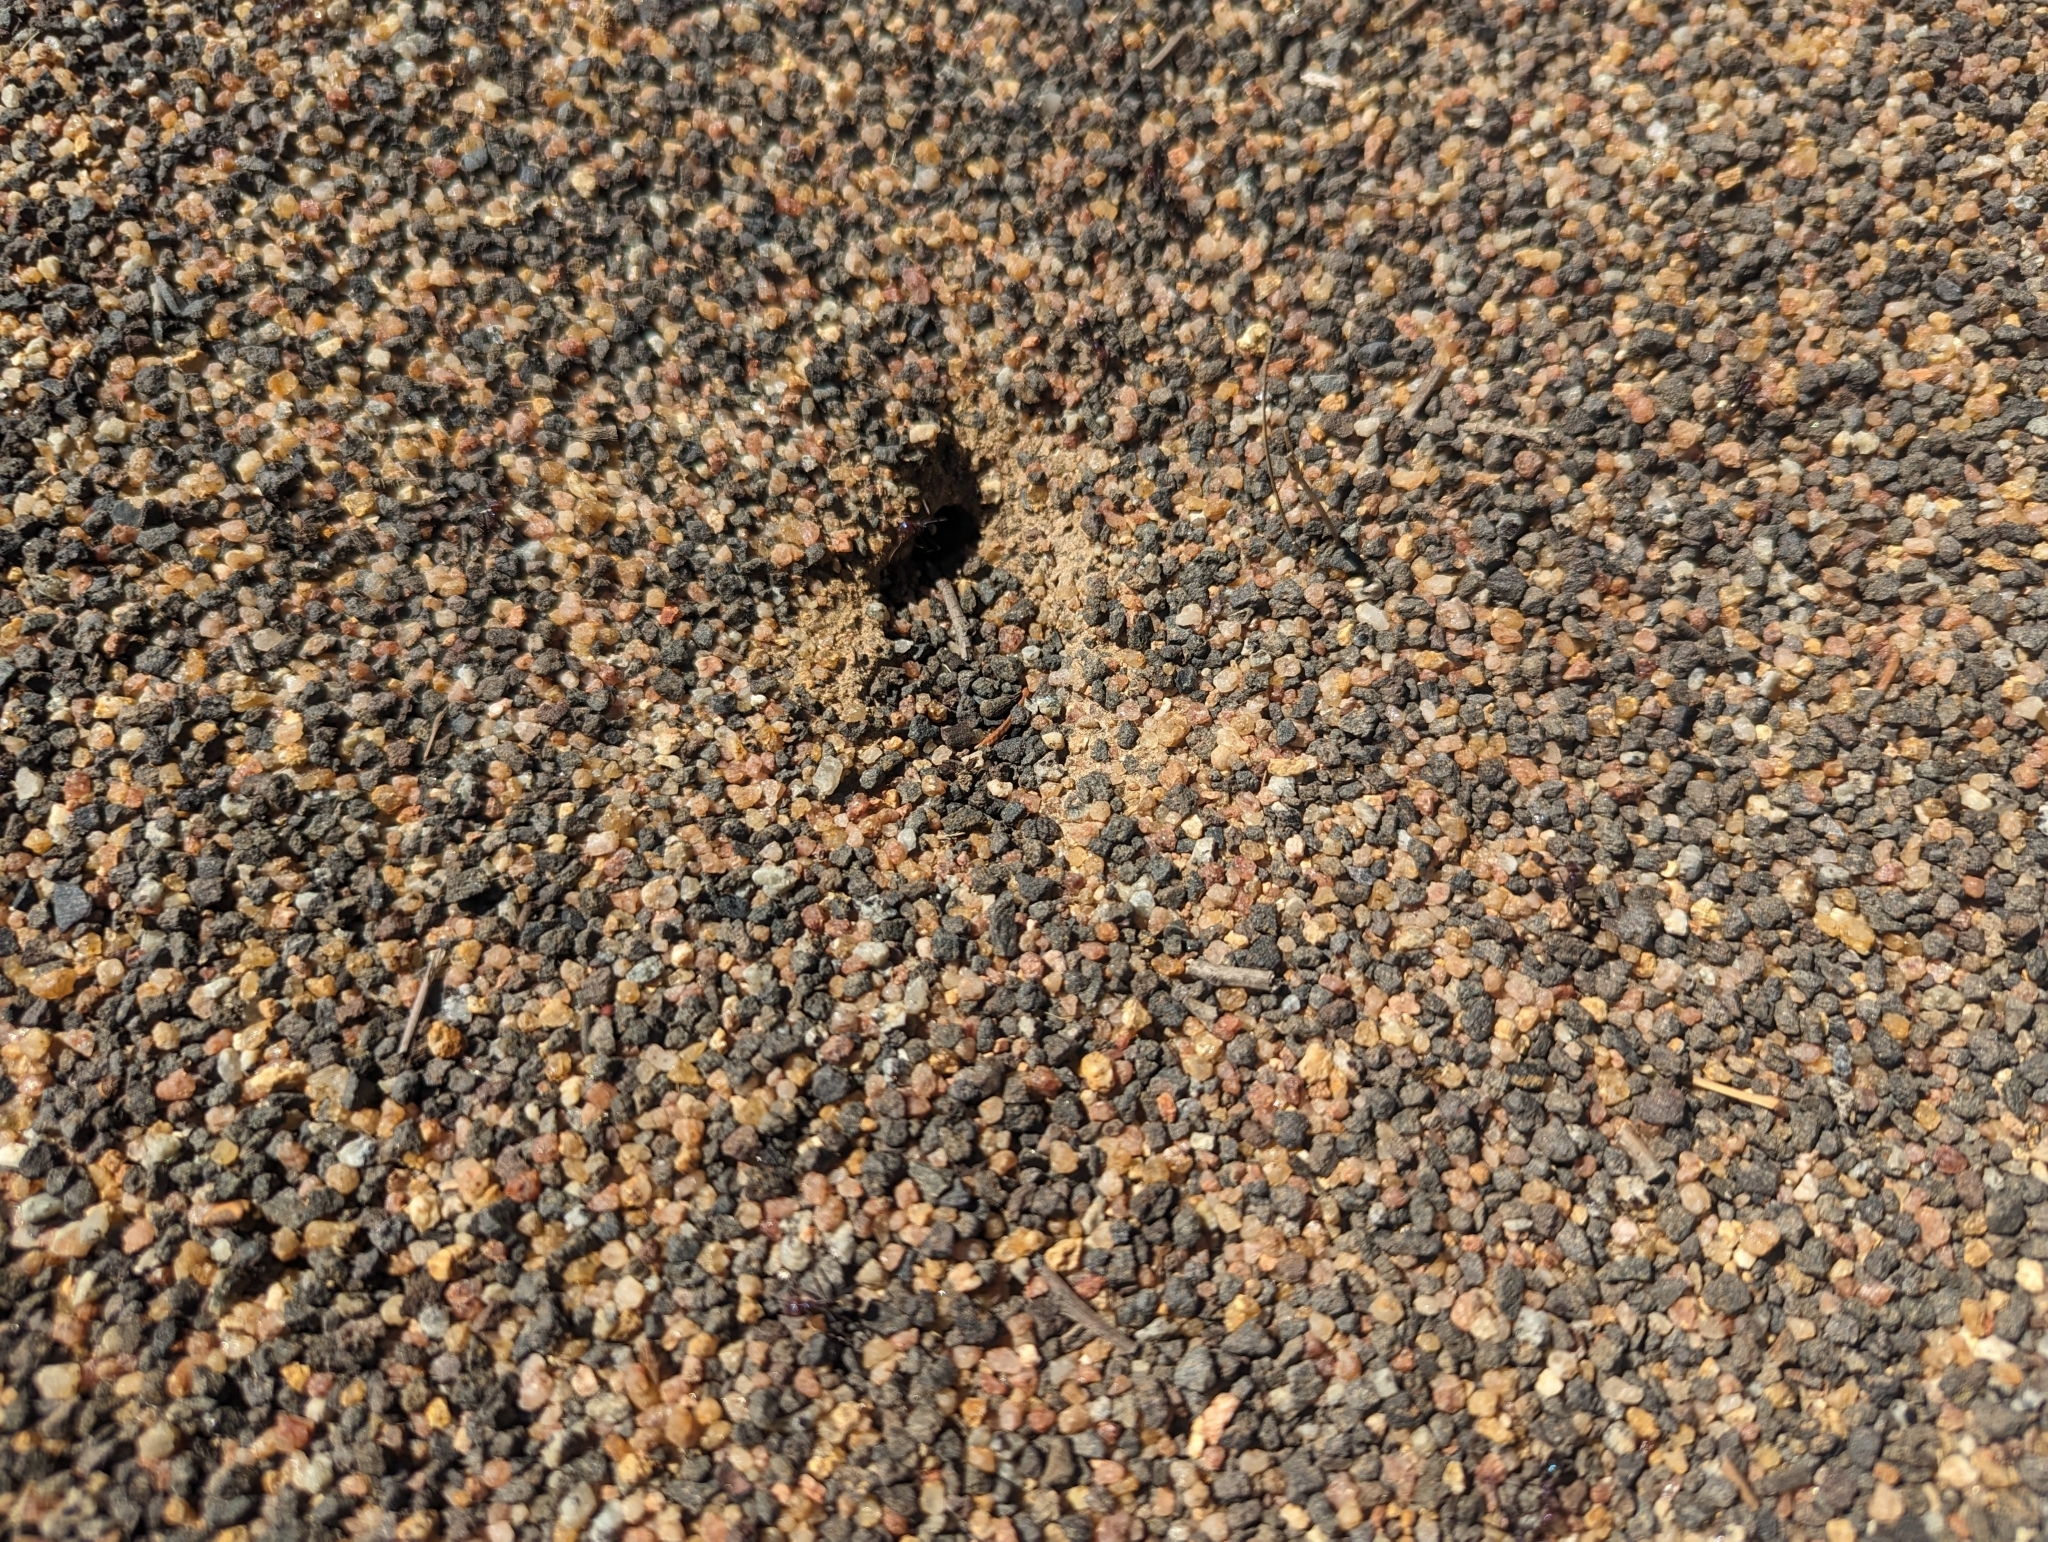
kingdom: Animalia
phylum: Arthropoda
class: Insecta
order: Hymenoptera
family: Formicidae
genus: Iridomyrmex
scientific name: Iridomyrmex purpureus
